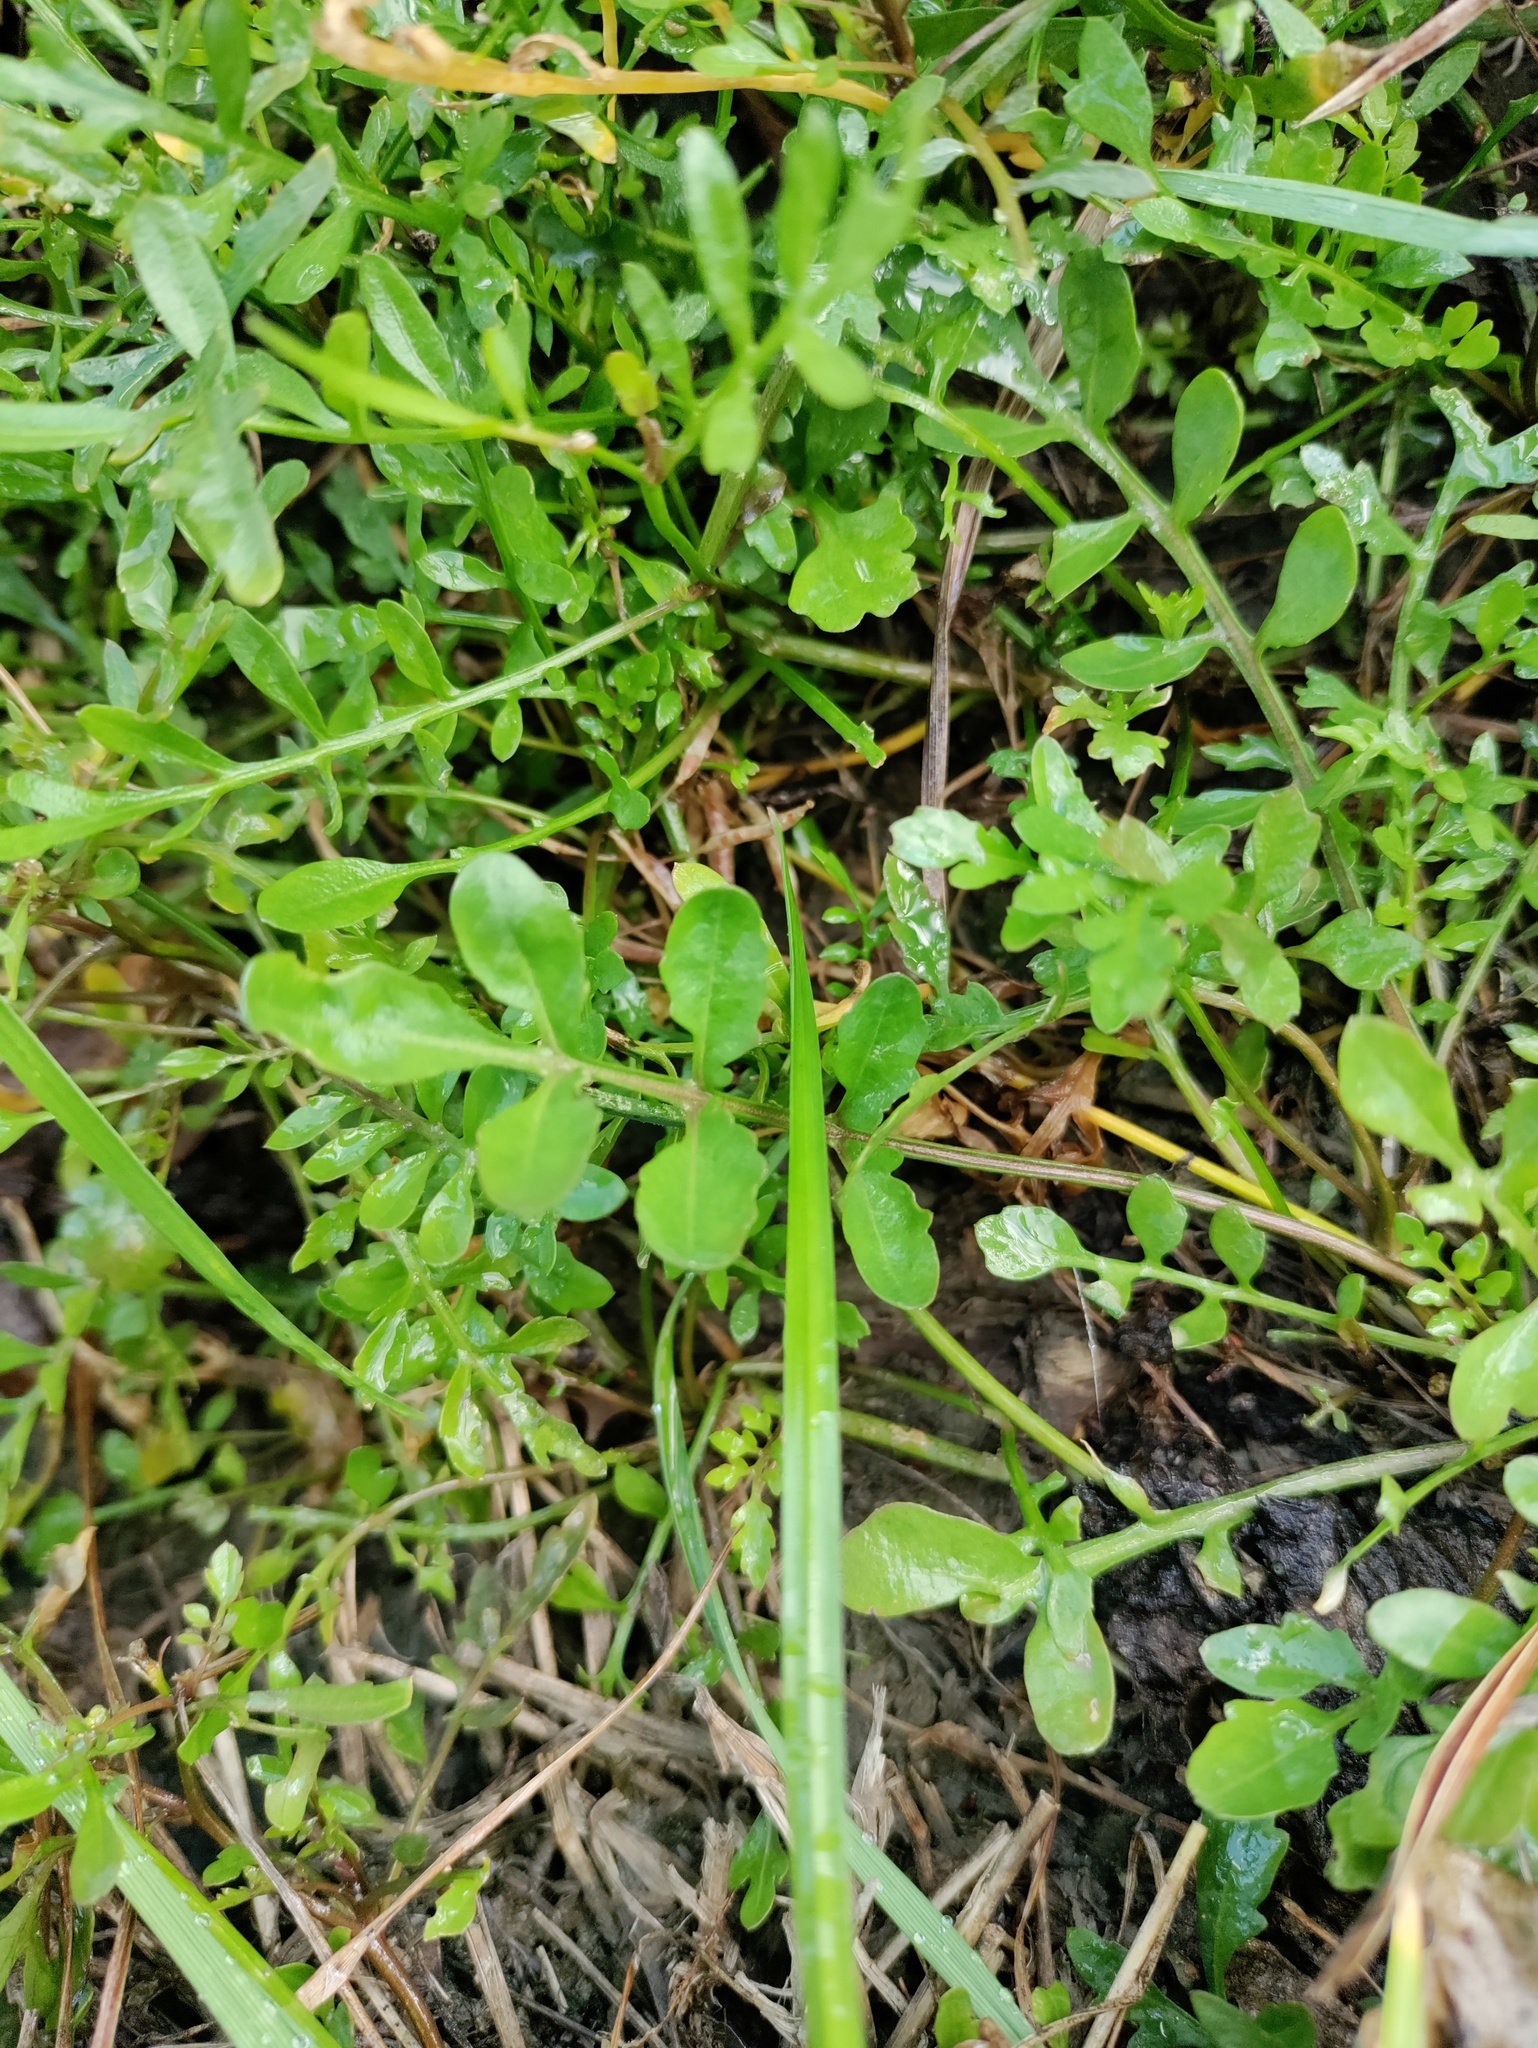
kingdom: Plantae
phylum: Tracheophyta
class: Magnoliopsida
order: Brassicales
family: Brassicaceae
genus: Rorippa
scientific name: Rorippa sylvestris
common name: Creeping yellowcress
